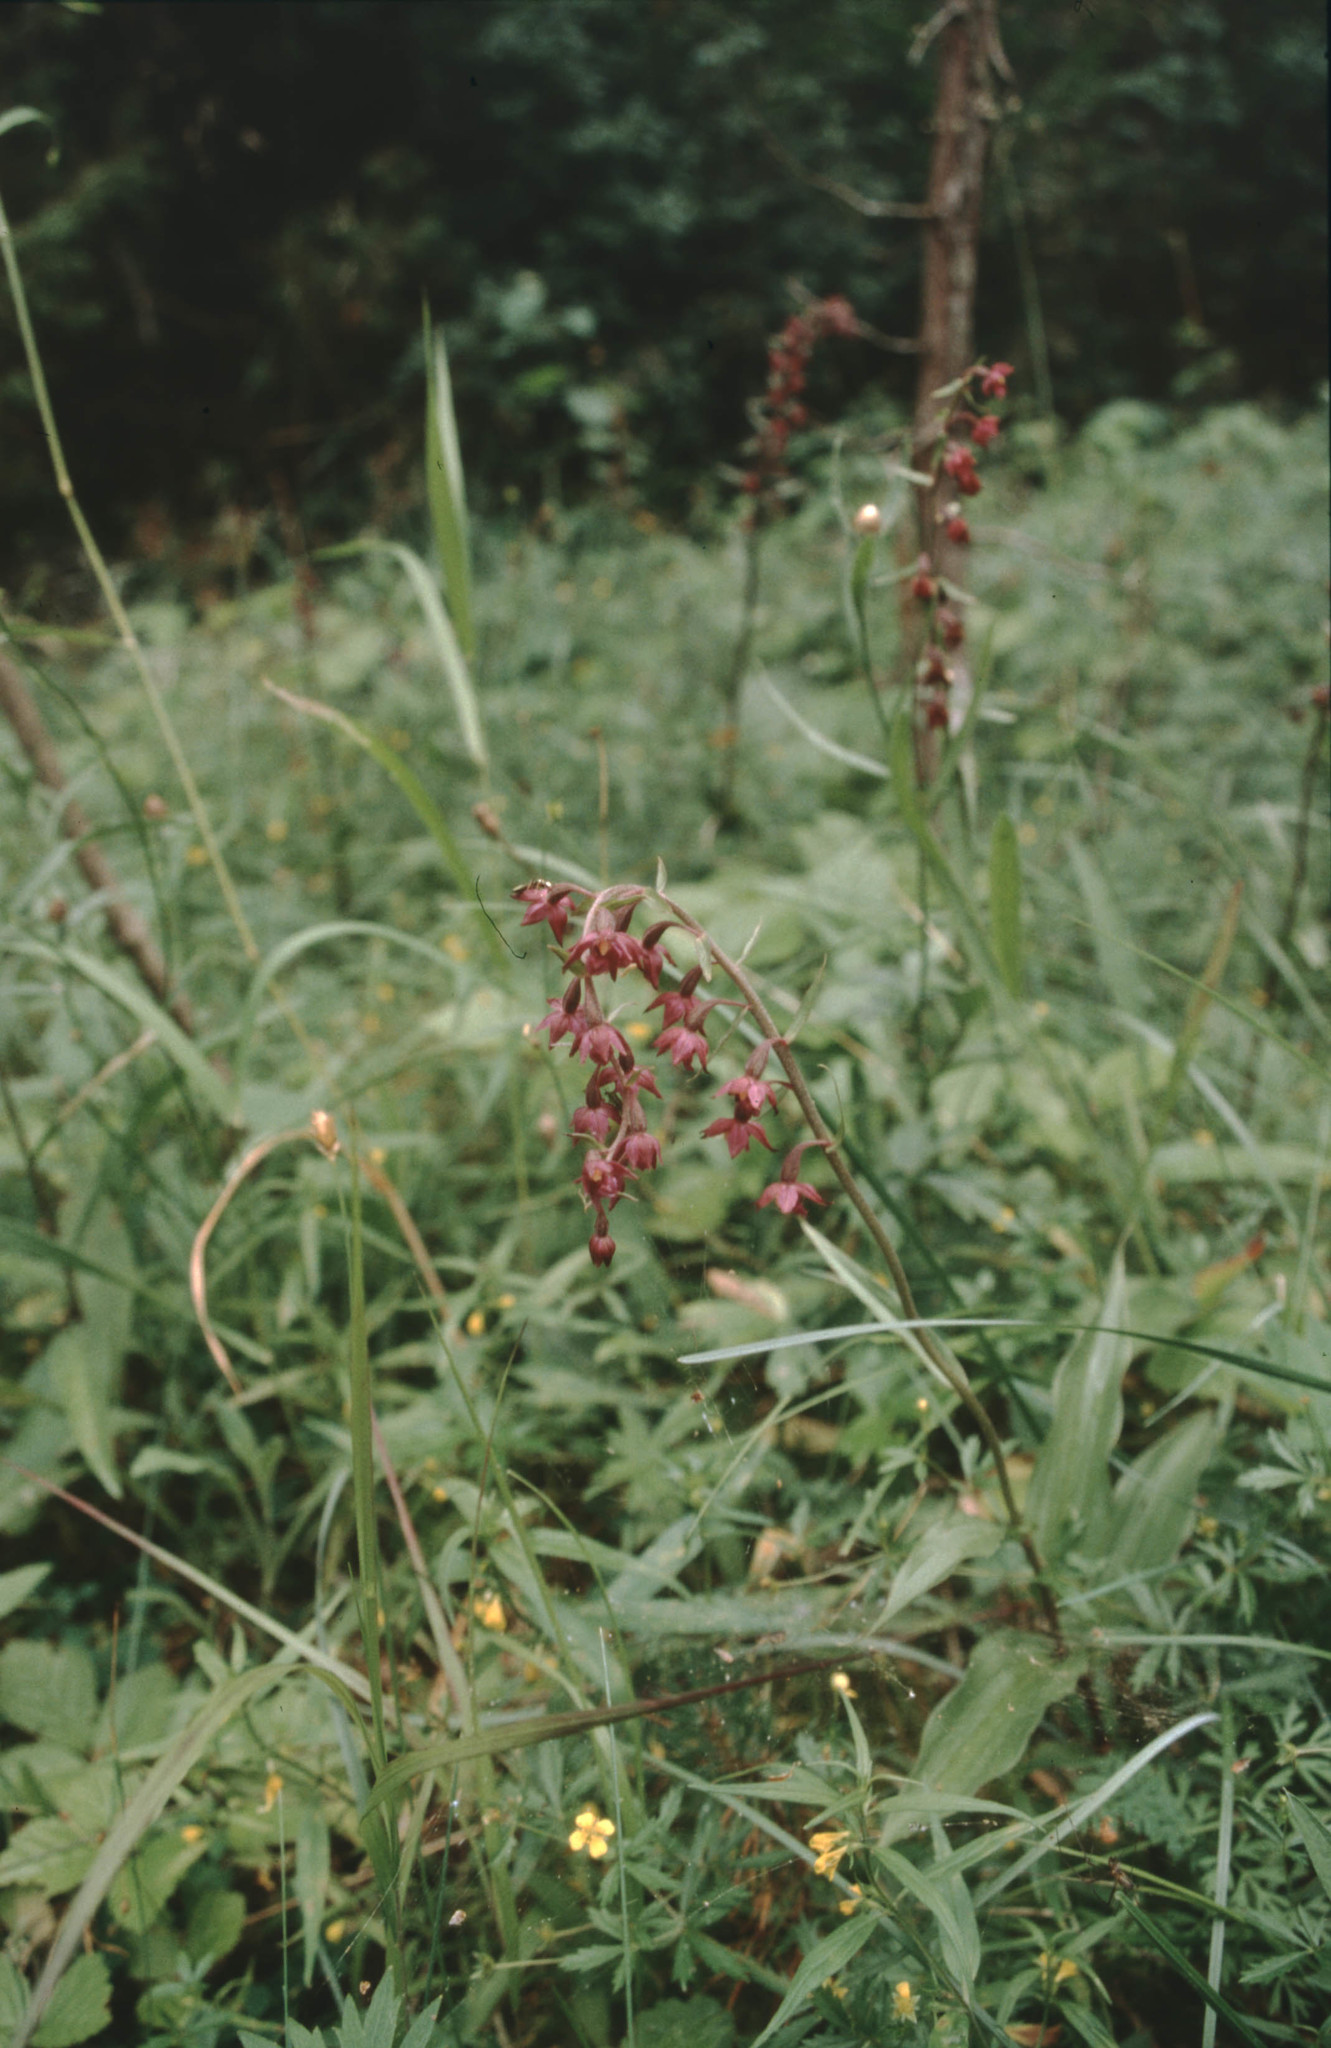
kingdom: Plantae
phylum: Tracheophyta
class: Liliopsida
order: Asparagales
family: Orchidaceae
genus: Epipactis
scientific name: Epipactis atrorubens
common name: Dark-red helleborine
